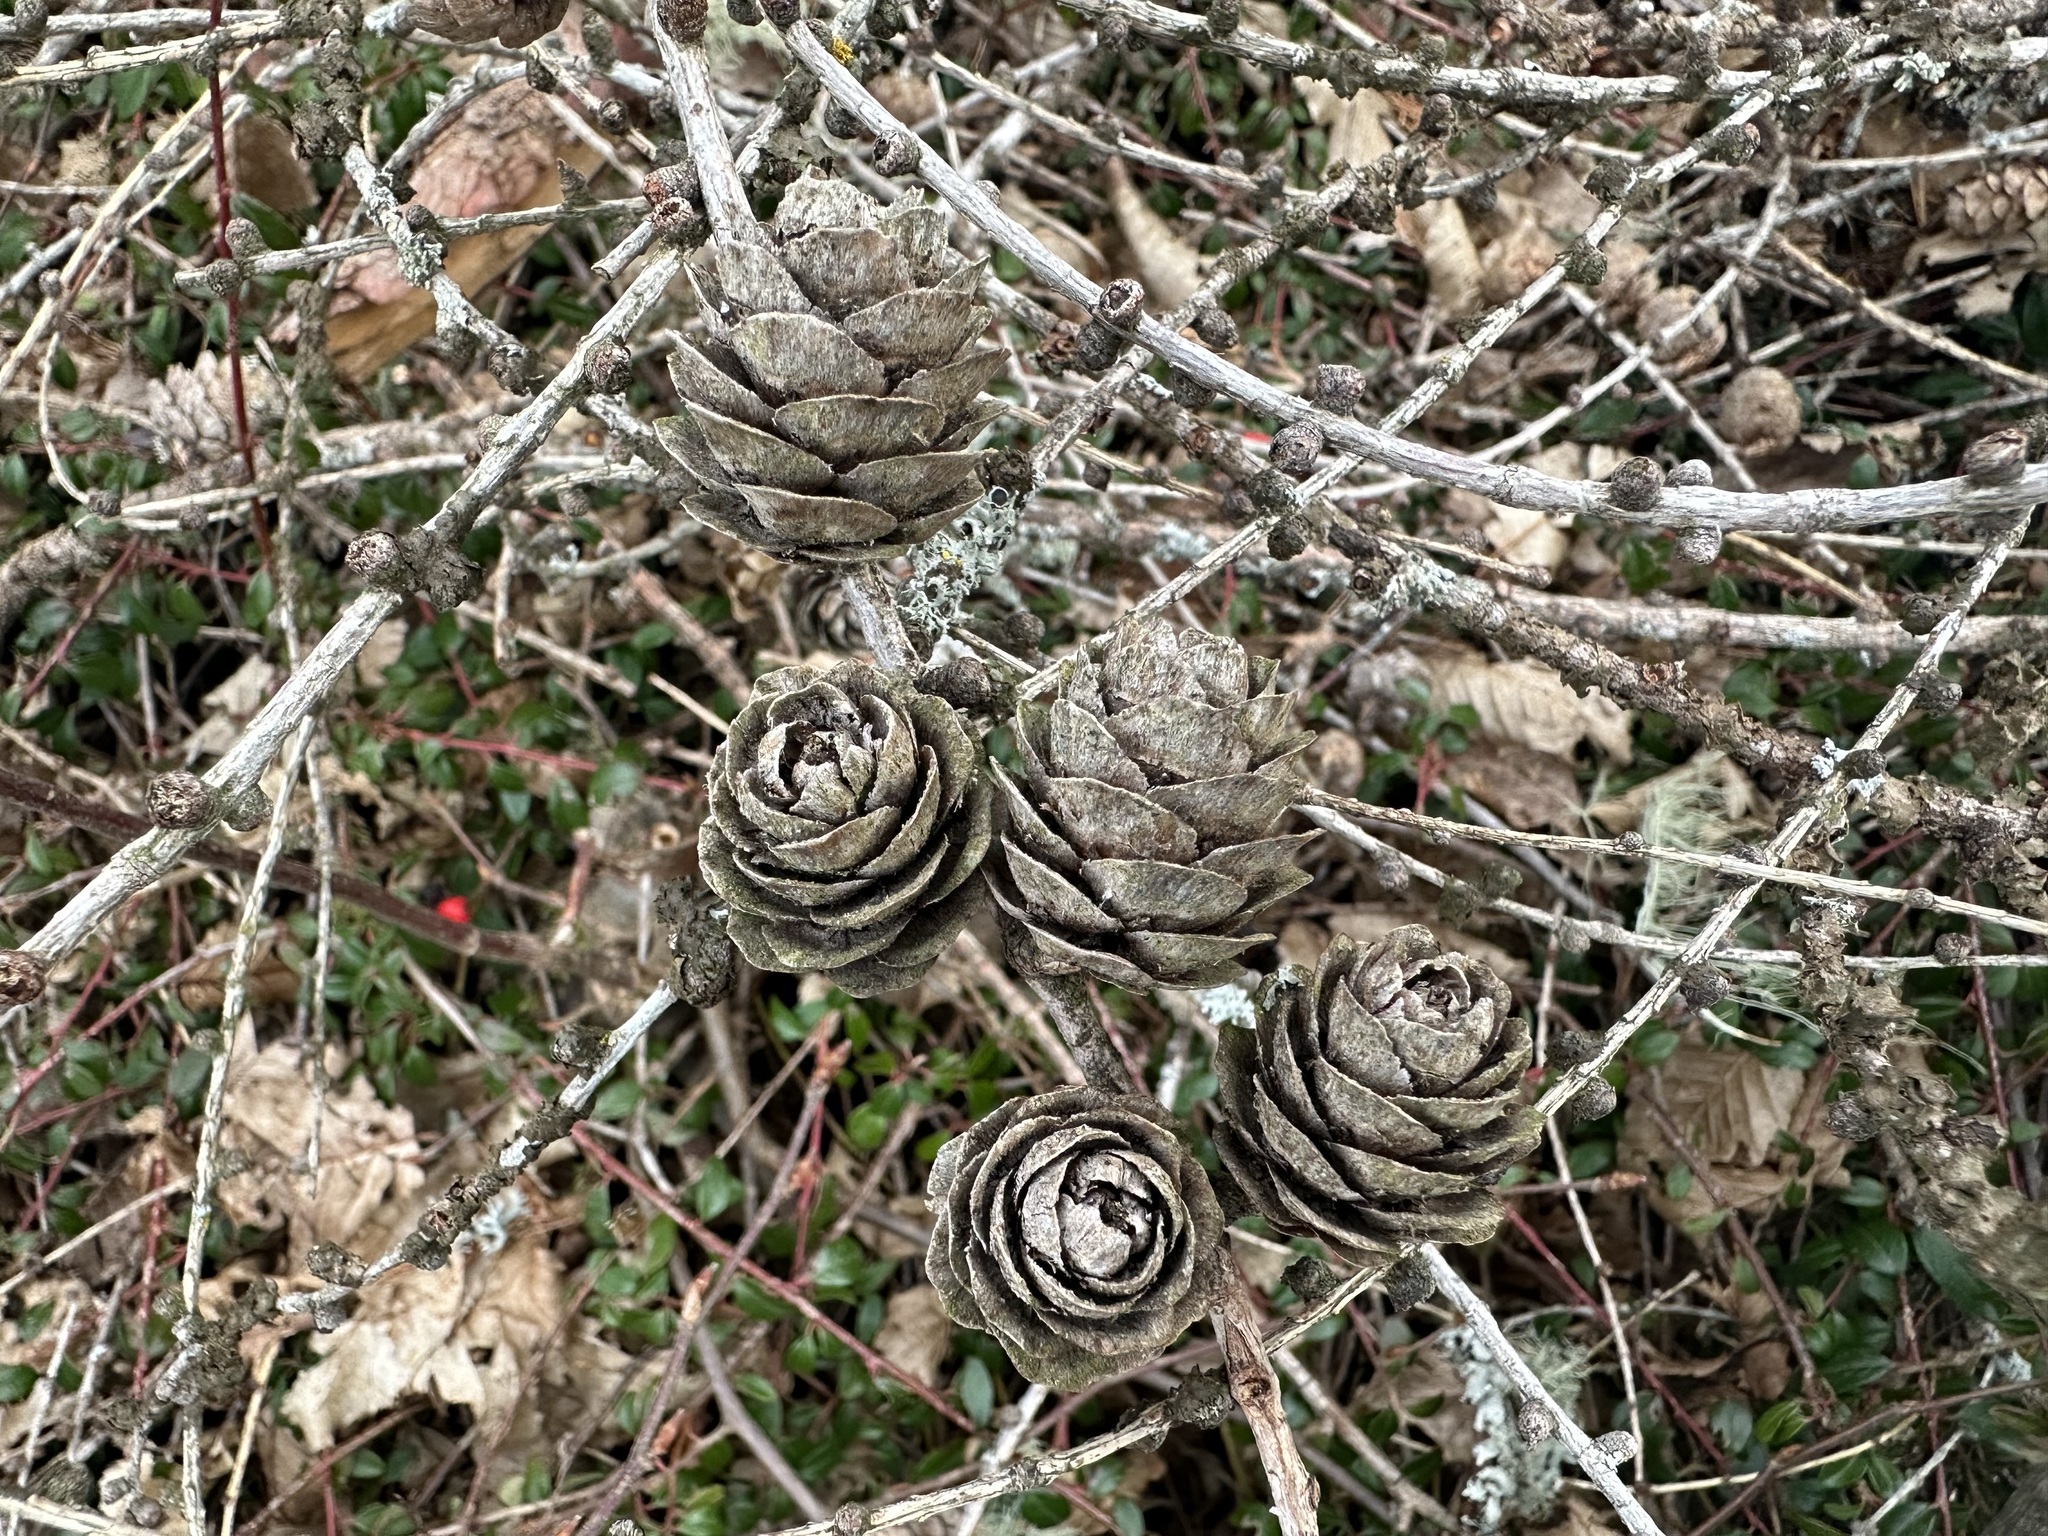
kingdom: Plantae
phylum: Tracheophyta
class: Pinopsida
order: Pinales
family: Pinaceae
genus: Larix
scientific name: Larix decidua
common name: European larch
